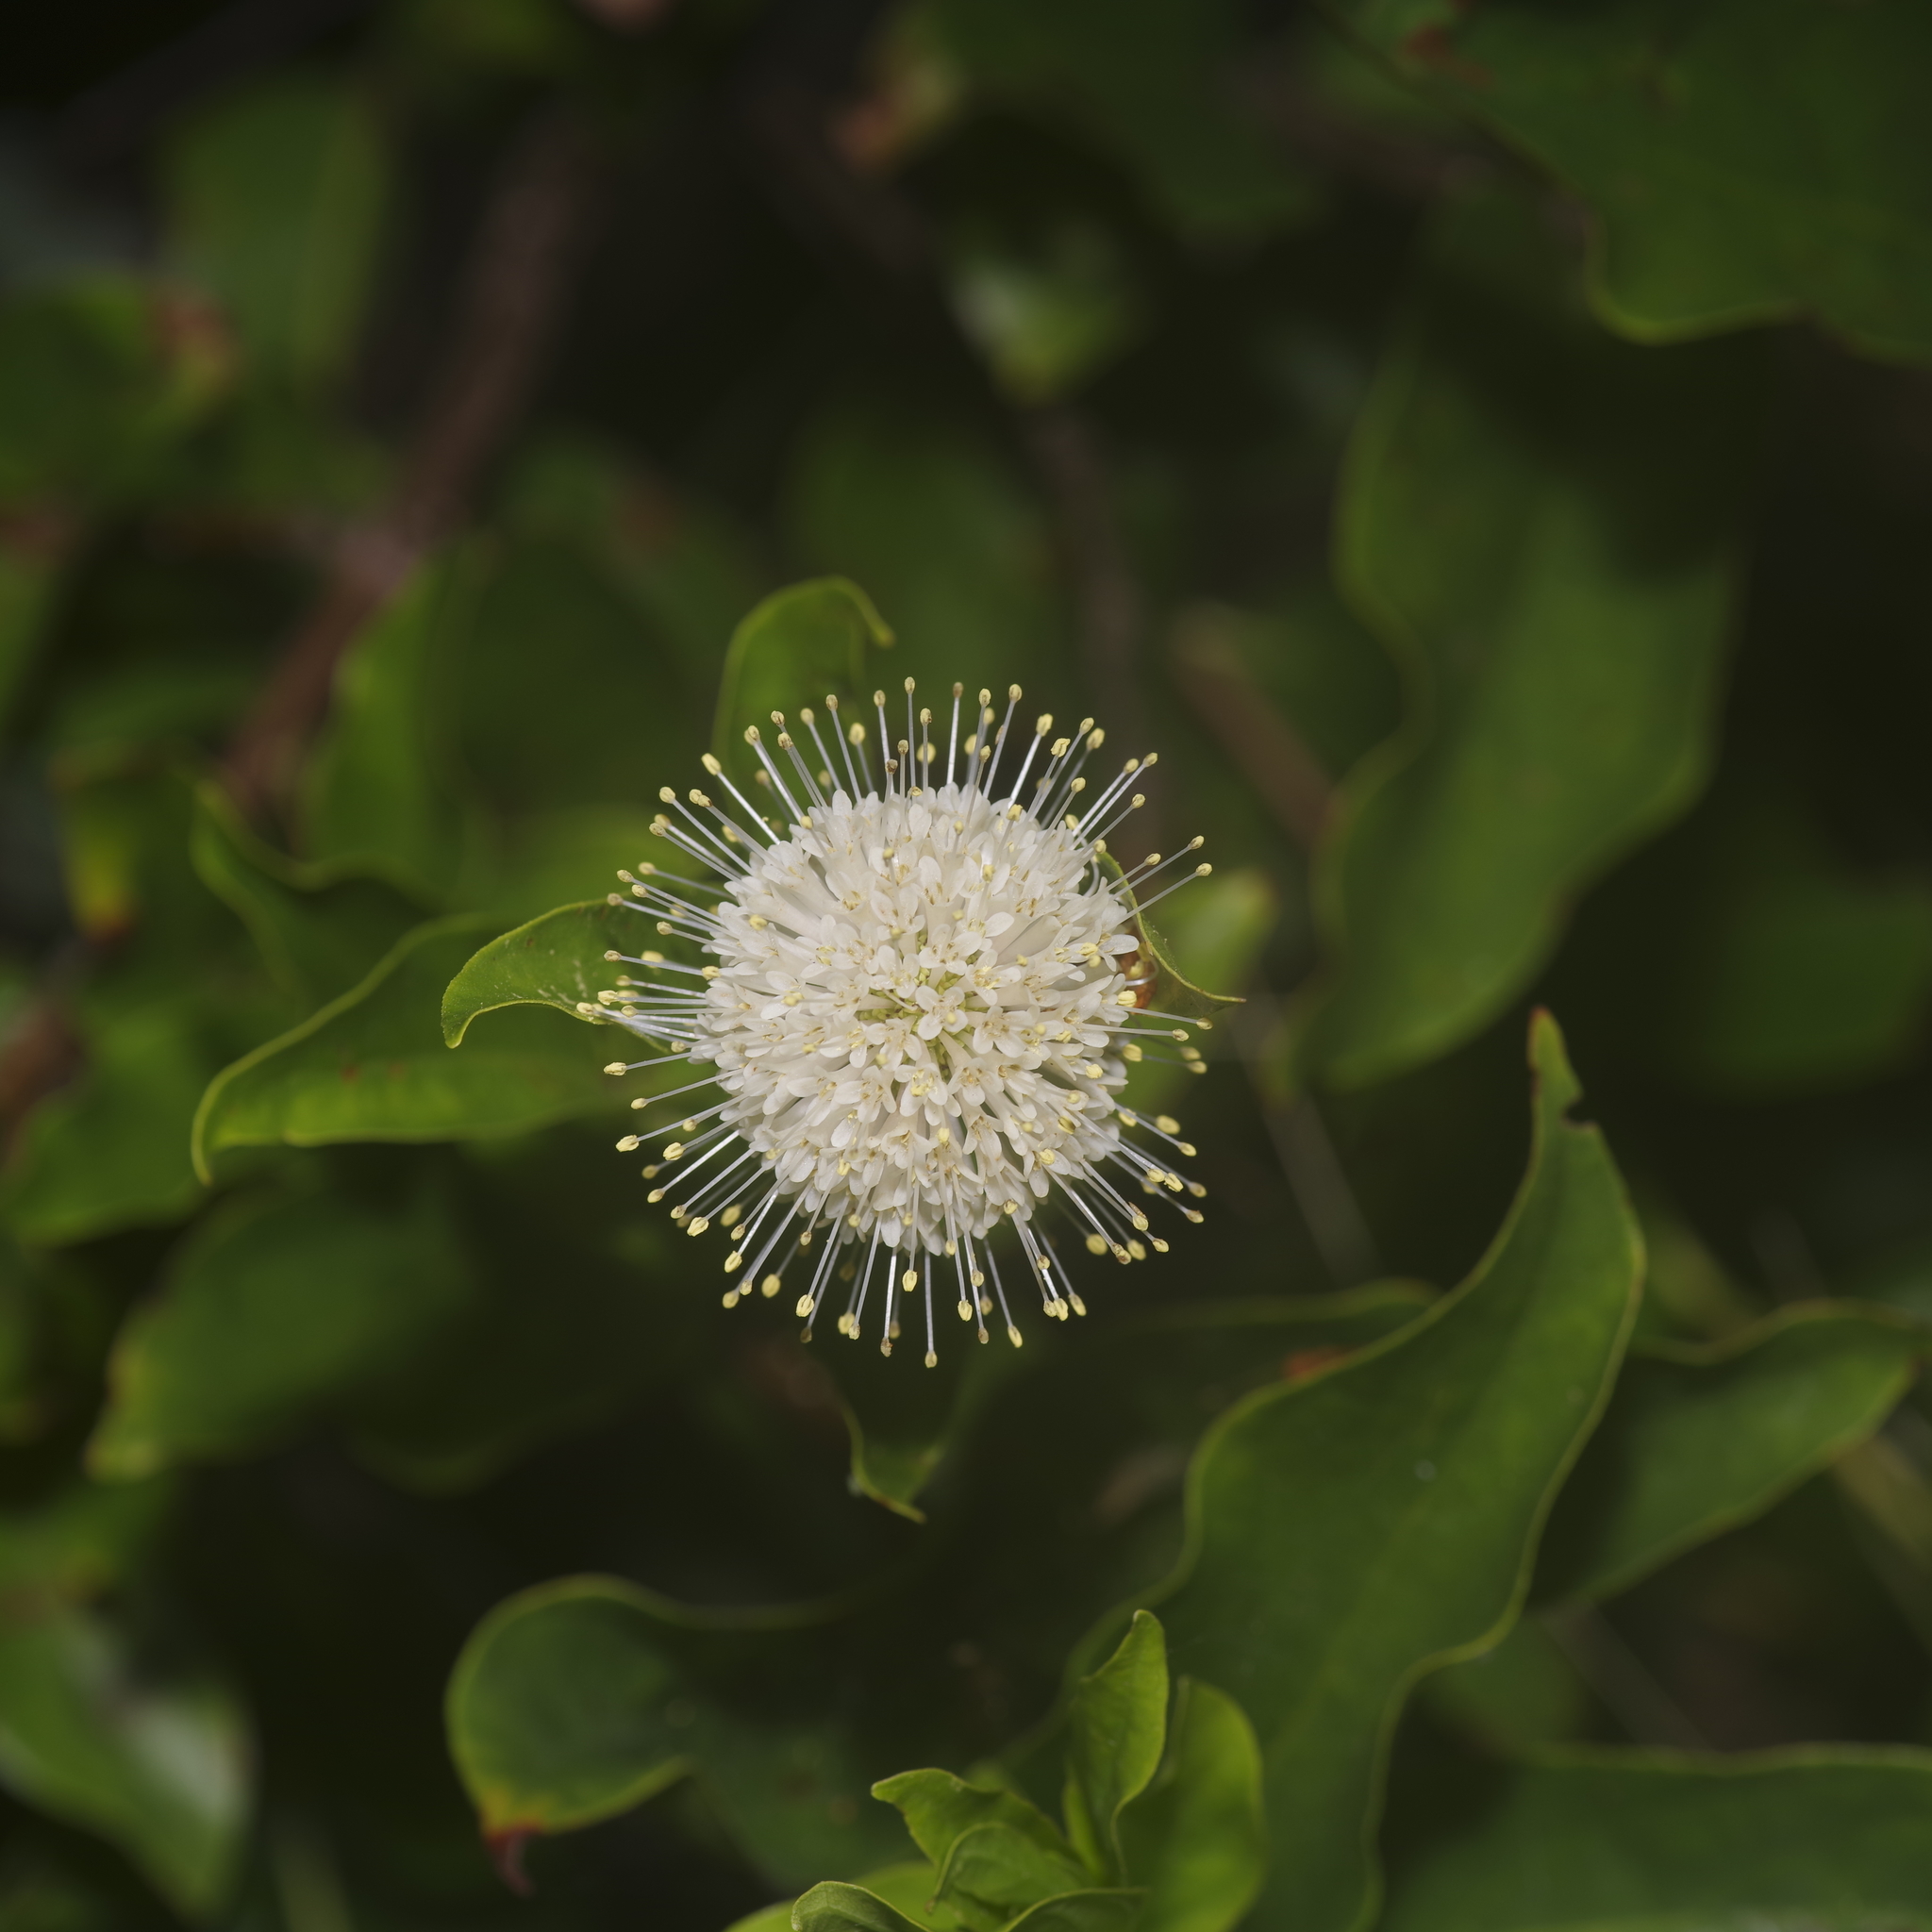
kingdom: Plantae
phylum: Tracheophyta
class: Magnoliopsida
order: Gentianales
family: Rubiaceae
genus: Cephalanthus
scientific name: Cephalanthus occidentalis
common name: Button-willow
